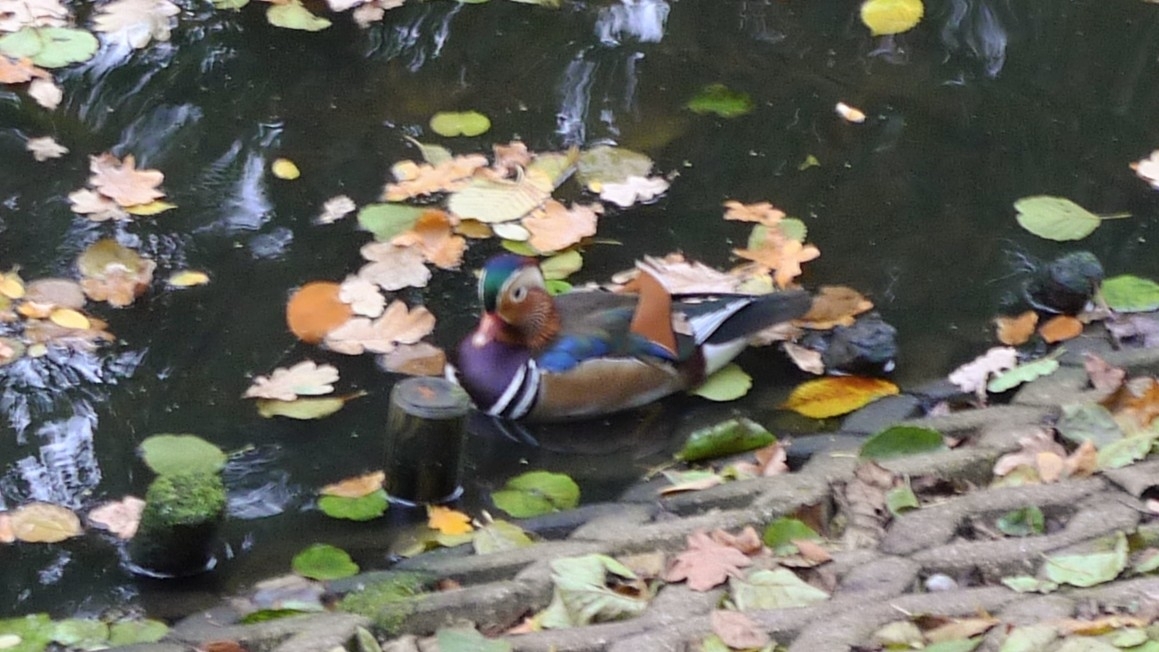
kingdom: Animalia
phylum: Chordata
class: Aves
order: Anseriformes
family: Anatidae
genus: Aix
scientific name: Aix galericulata
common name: Mandarin duck
